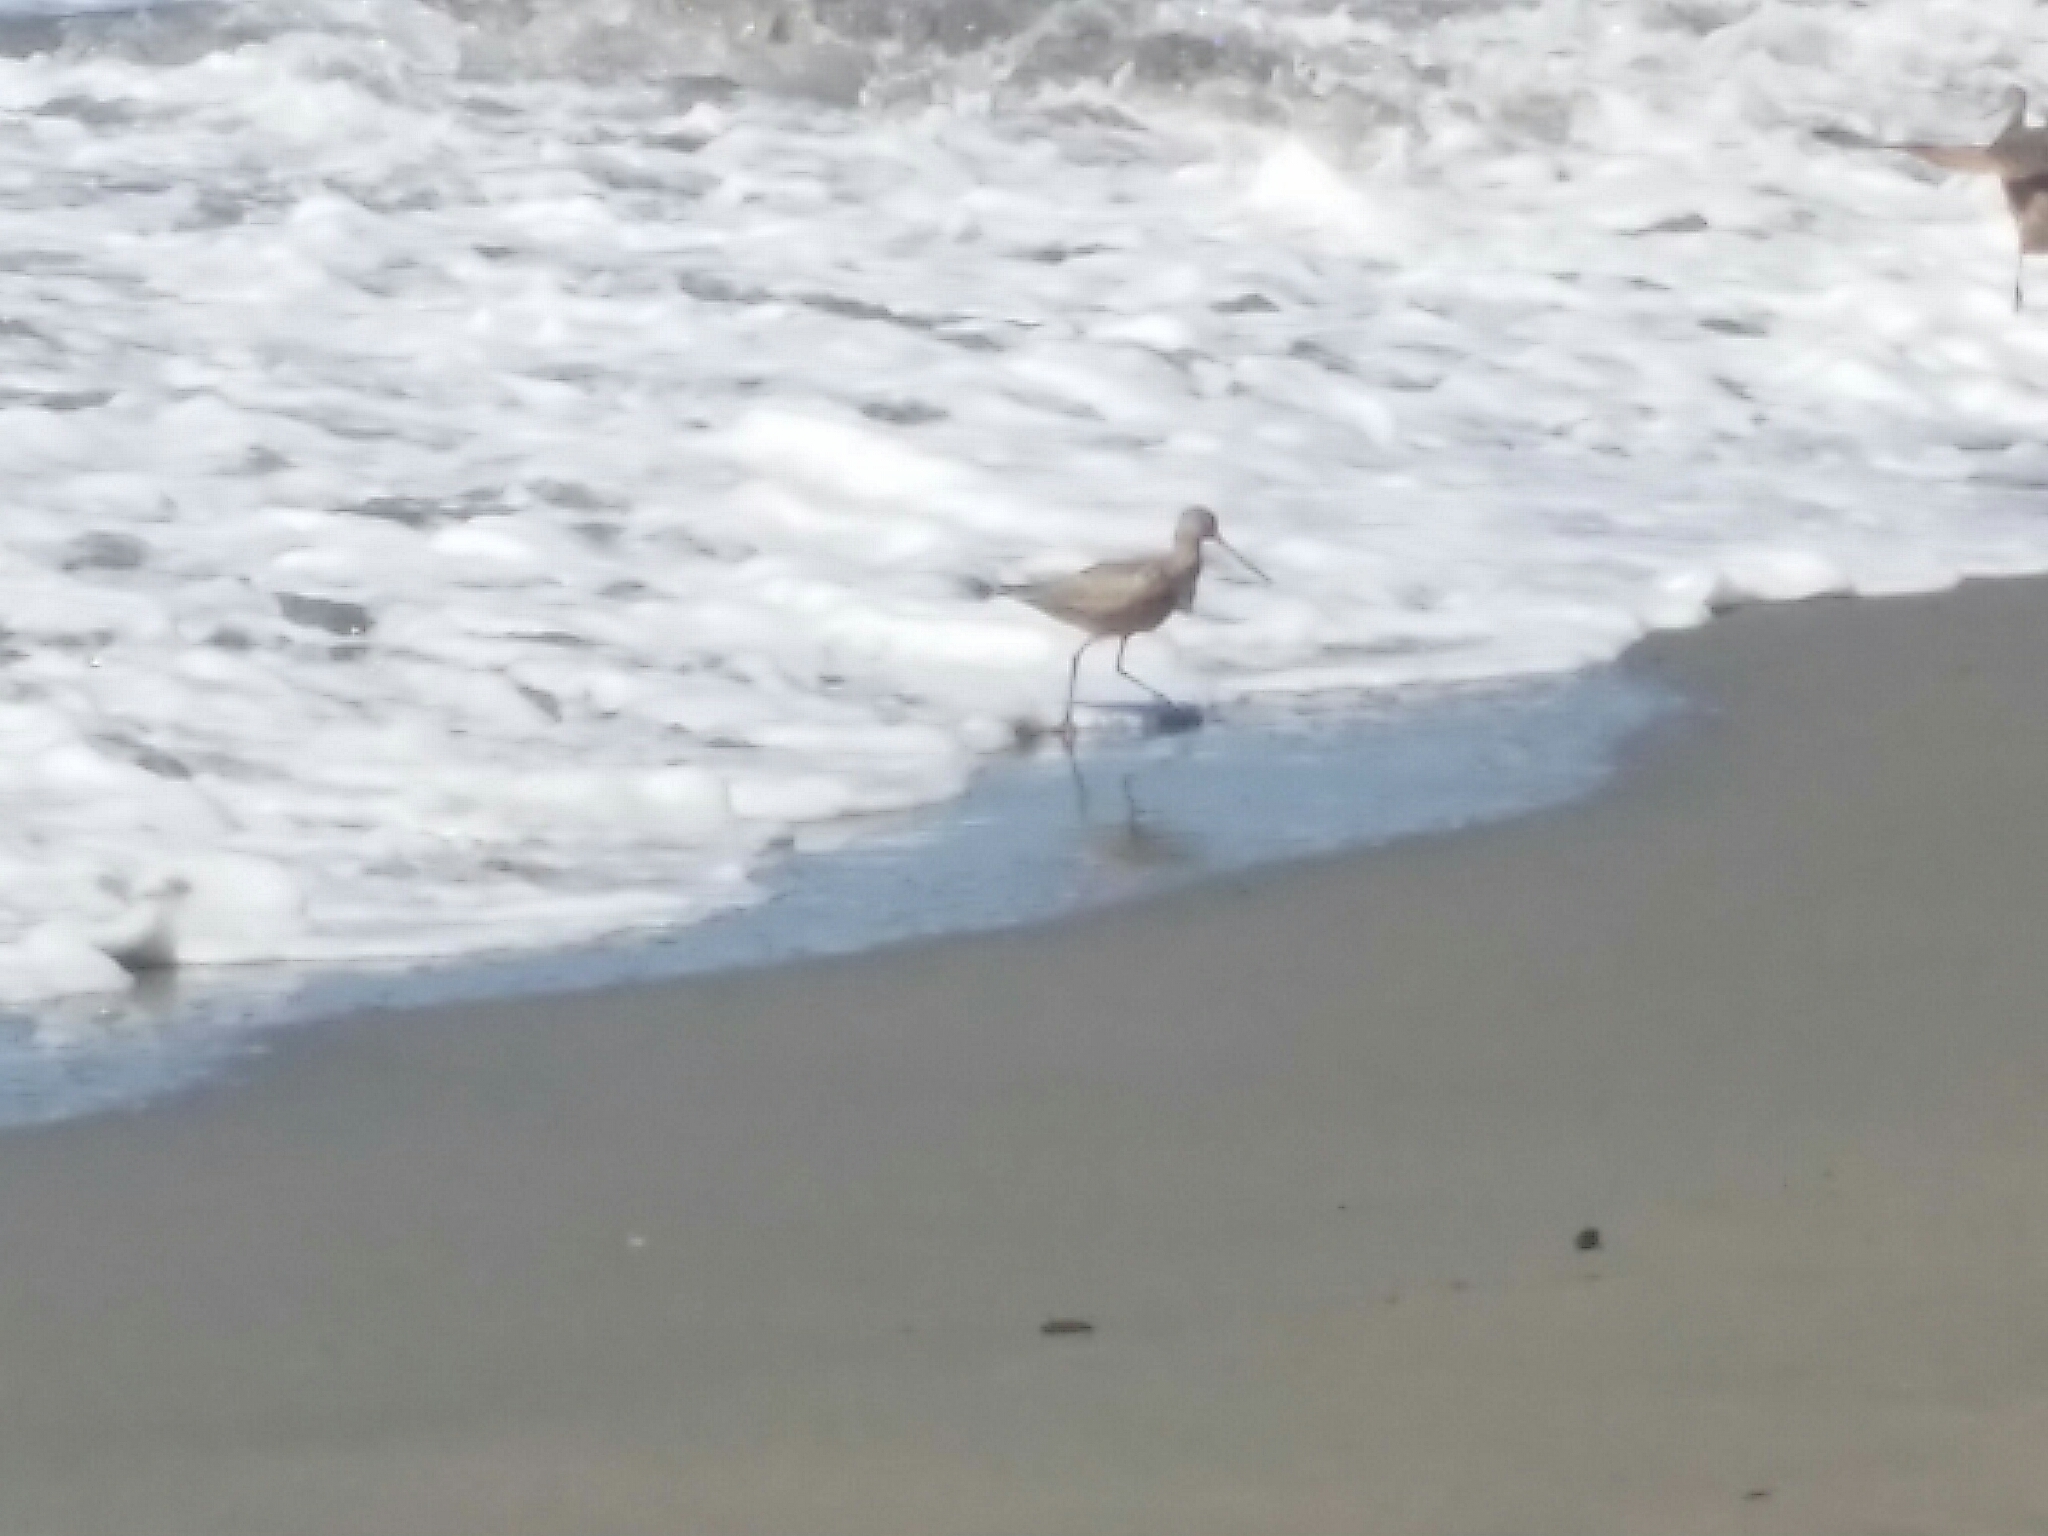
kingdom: Animalia
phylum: Chordata
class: Aves
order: Charadriiformes
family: Scolopacidae
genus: Limosa
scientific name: Limosa fedoa
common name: Marbled godwit
